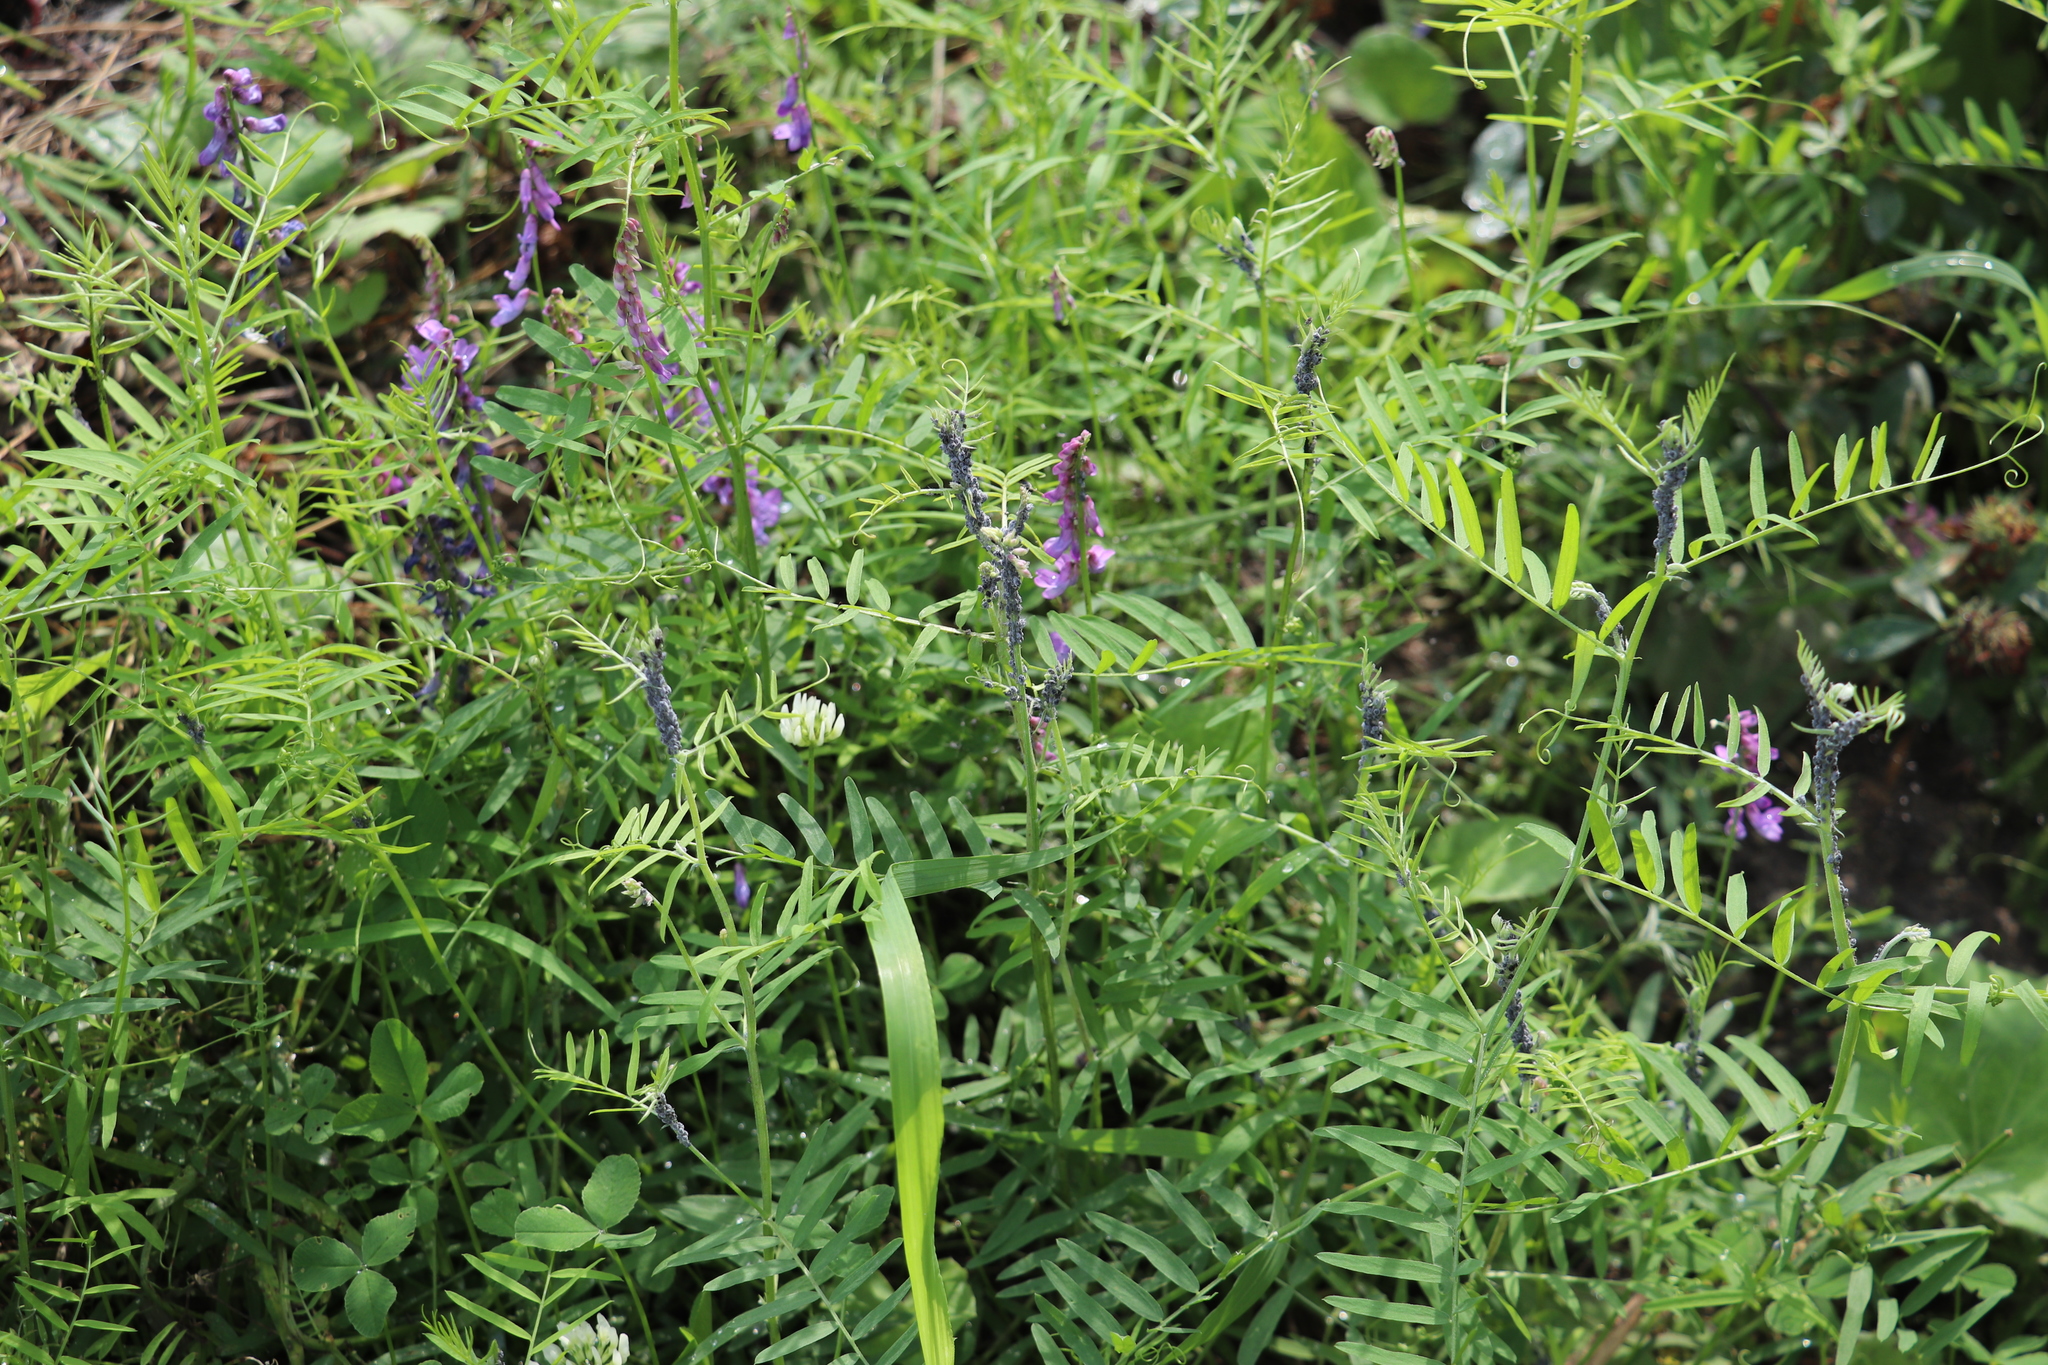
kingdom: Plantae
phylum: Tracheophyta
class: Magnoliopsida
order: Fabales
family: Fabaceae
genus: Vicia
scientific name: Vicia cracca
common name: Bird vetch
